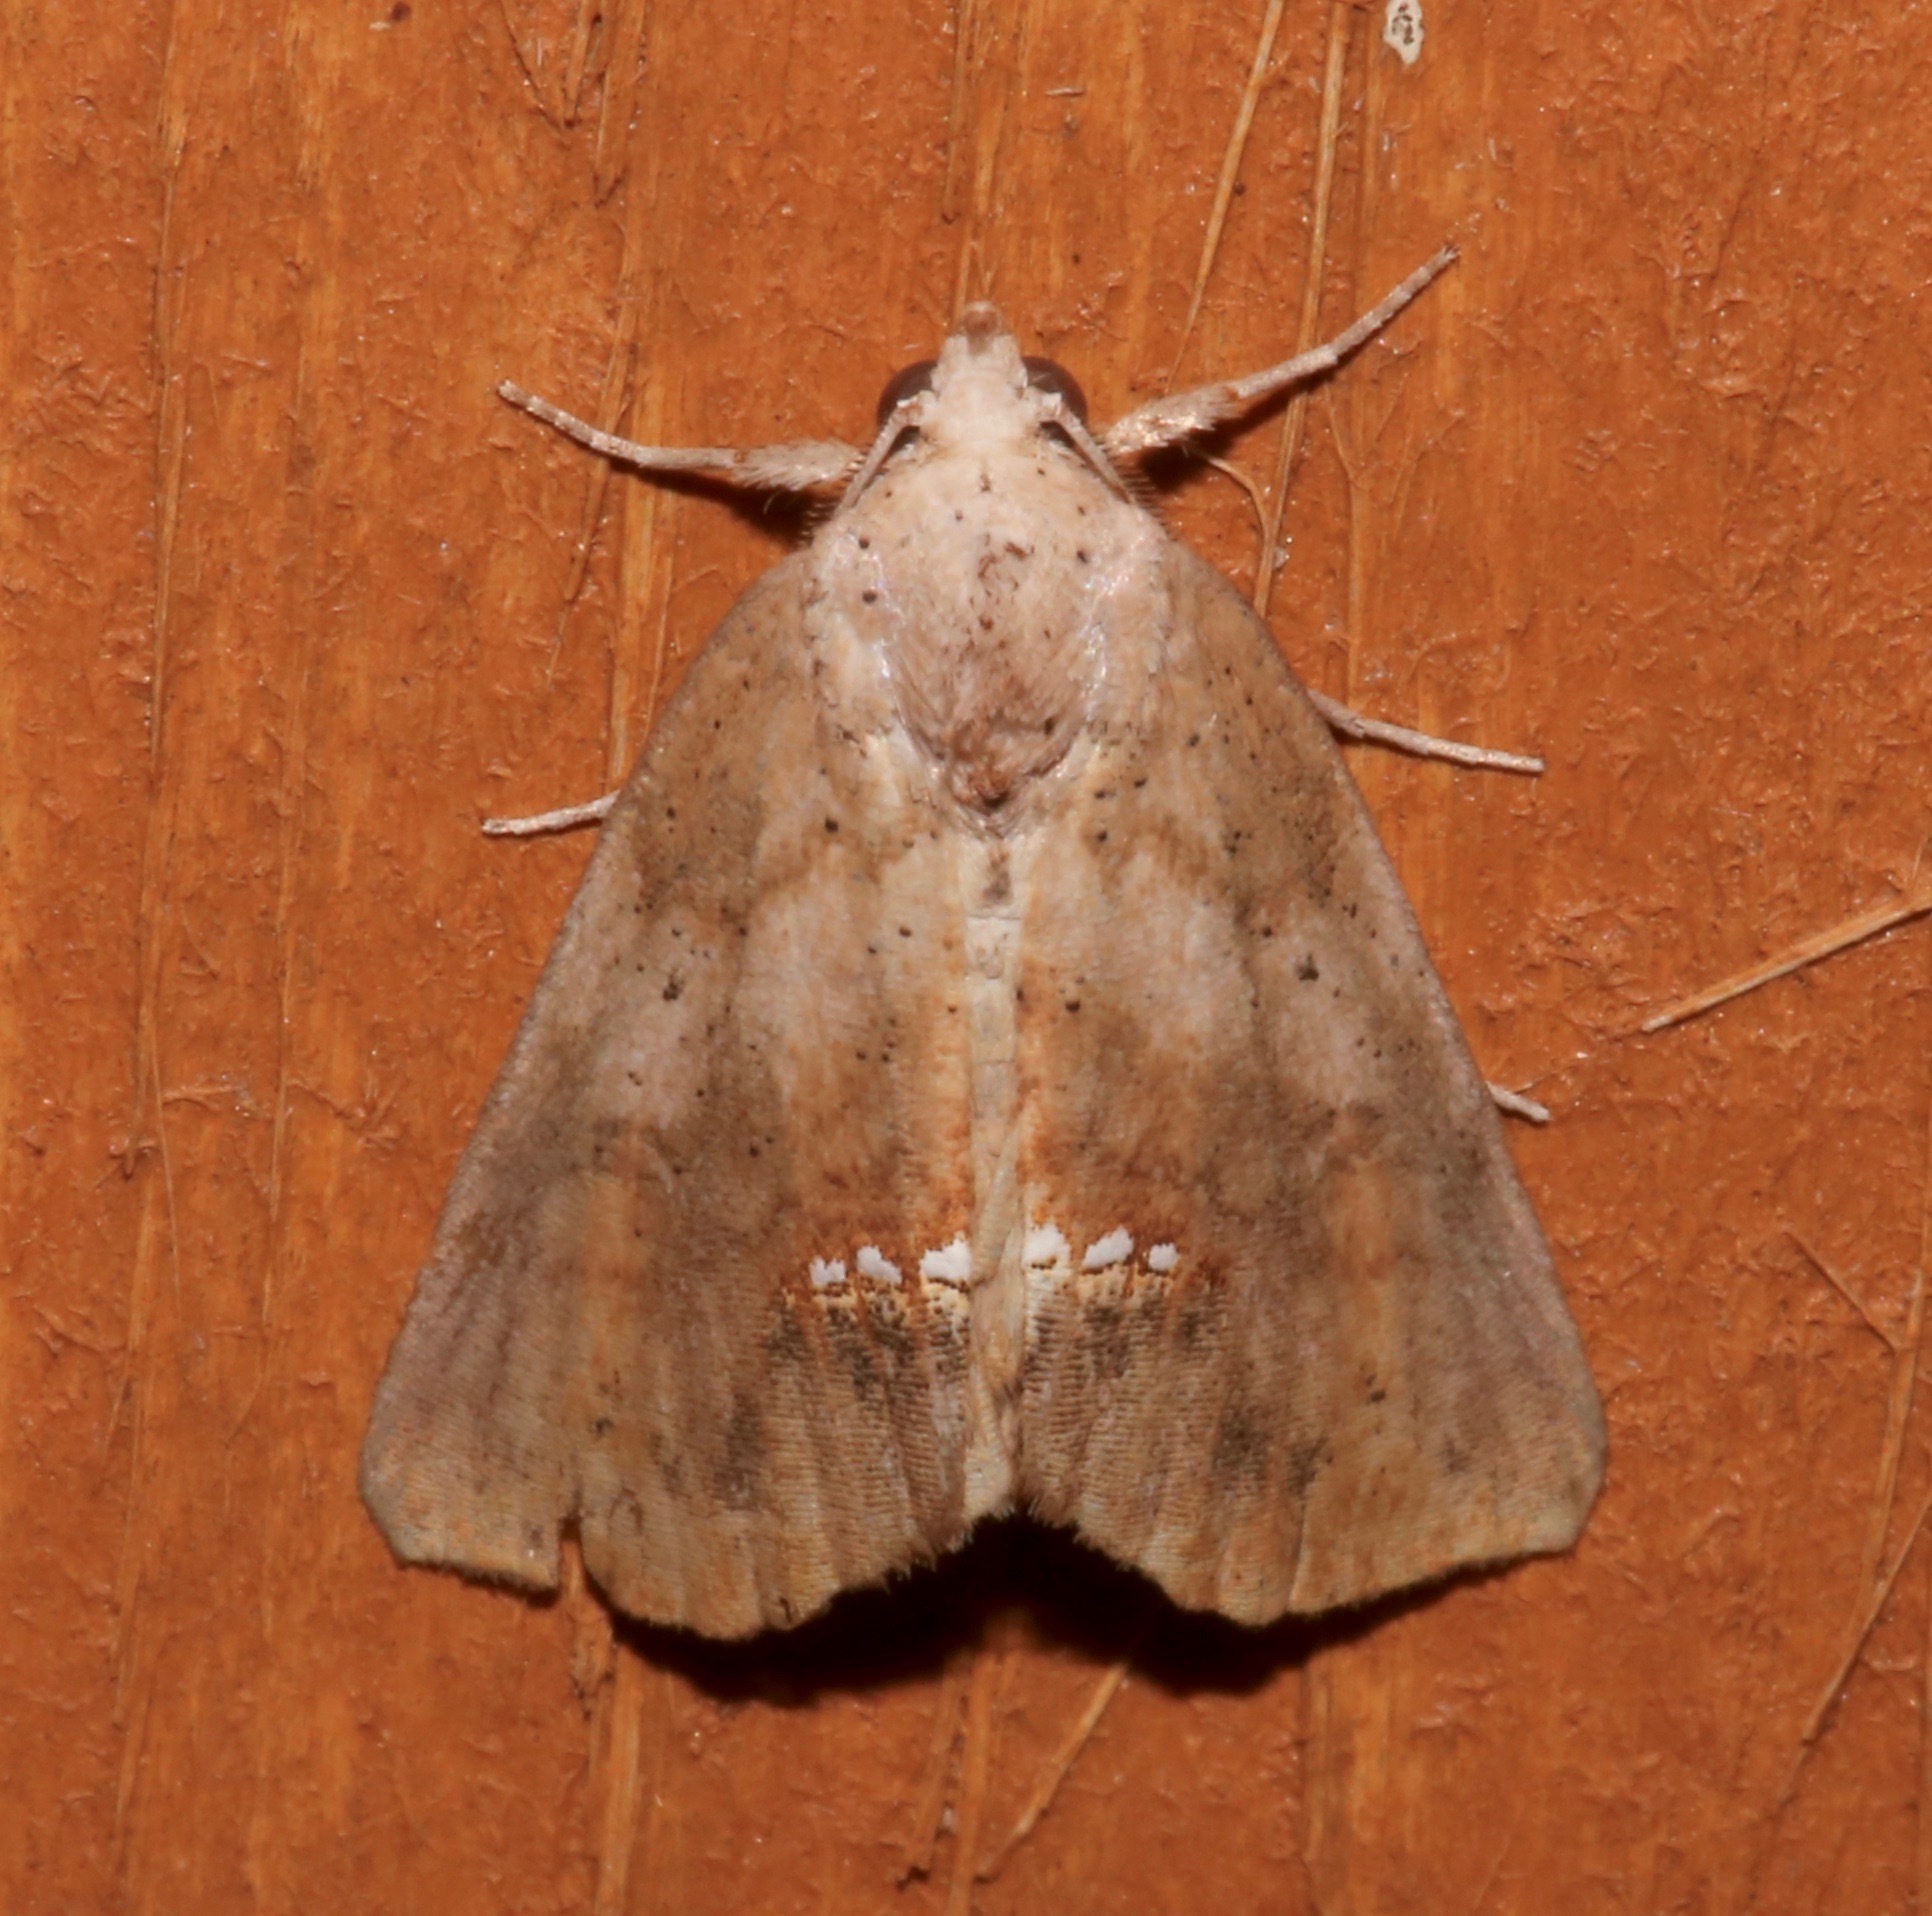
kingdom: Animalia
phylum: Arthropoda
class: Insecta
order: Lepidoptera
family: Erebidae
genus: Hypsoropha
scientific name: Hypsoropha hormos
